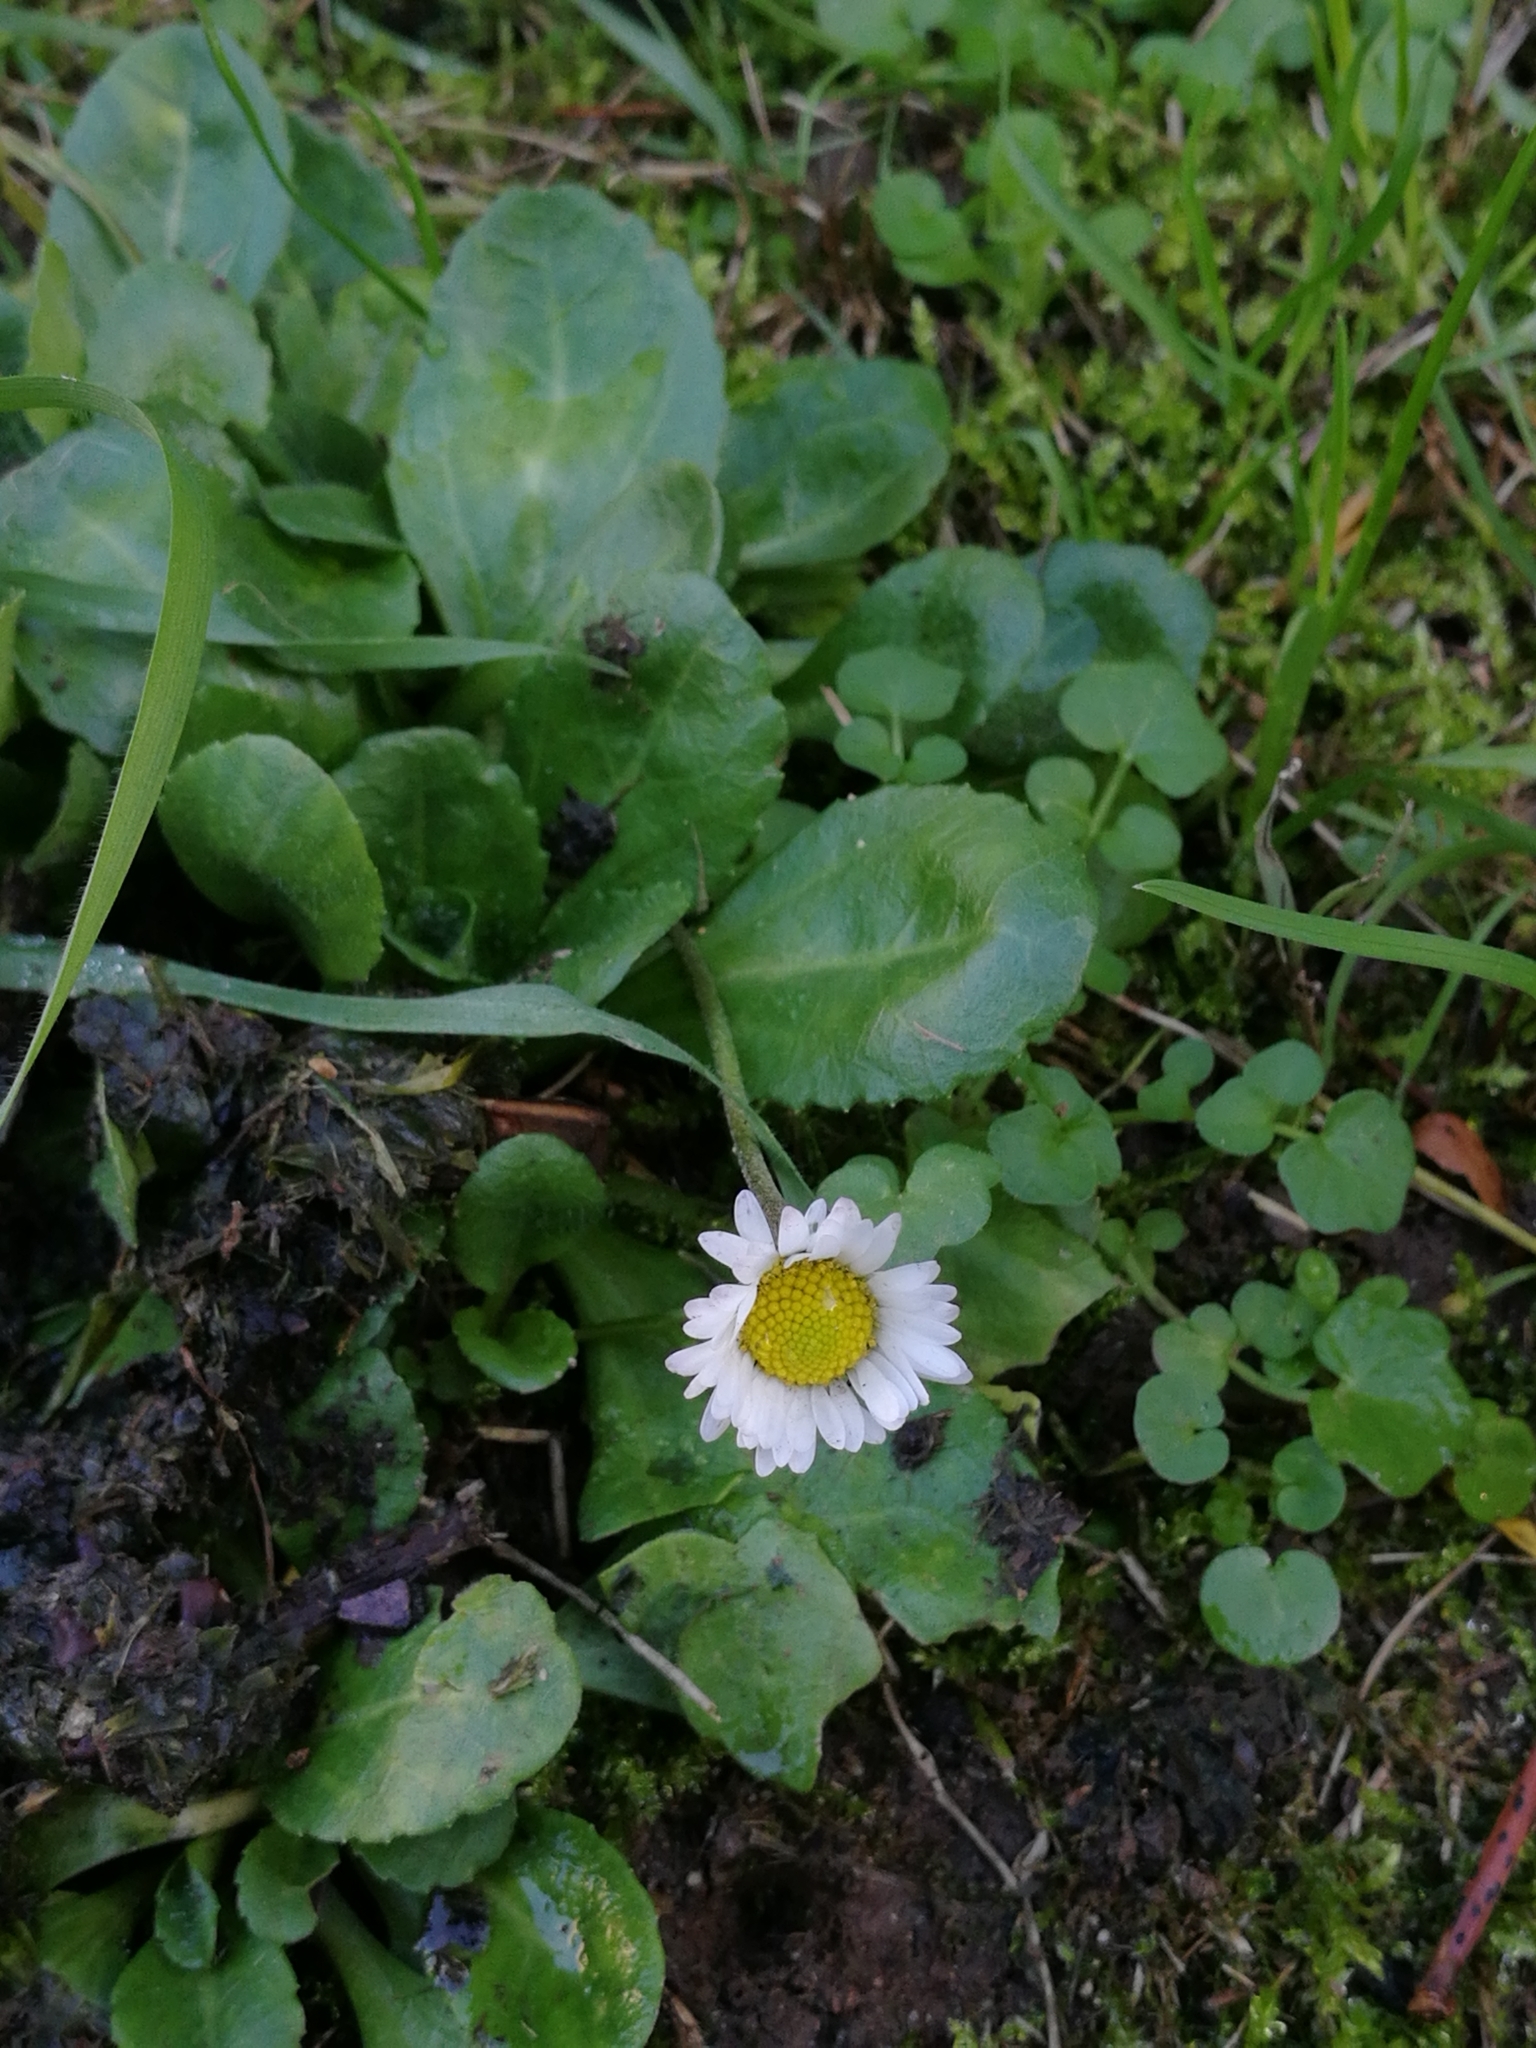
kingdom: Plantae
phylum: Tracheophyta
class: Magnoliopsida
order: Asterales
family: Asteraceae
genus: Bellis
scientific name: Bellis perennis
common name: Lawndaisy
